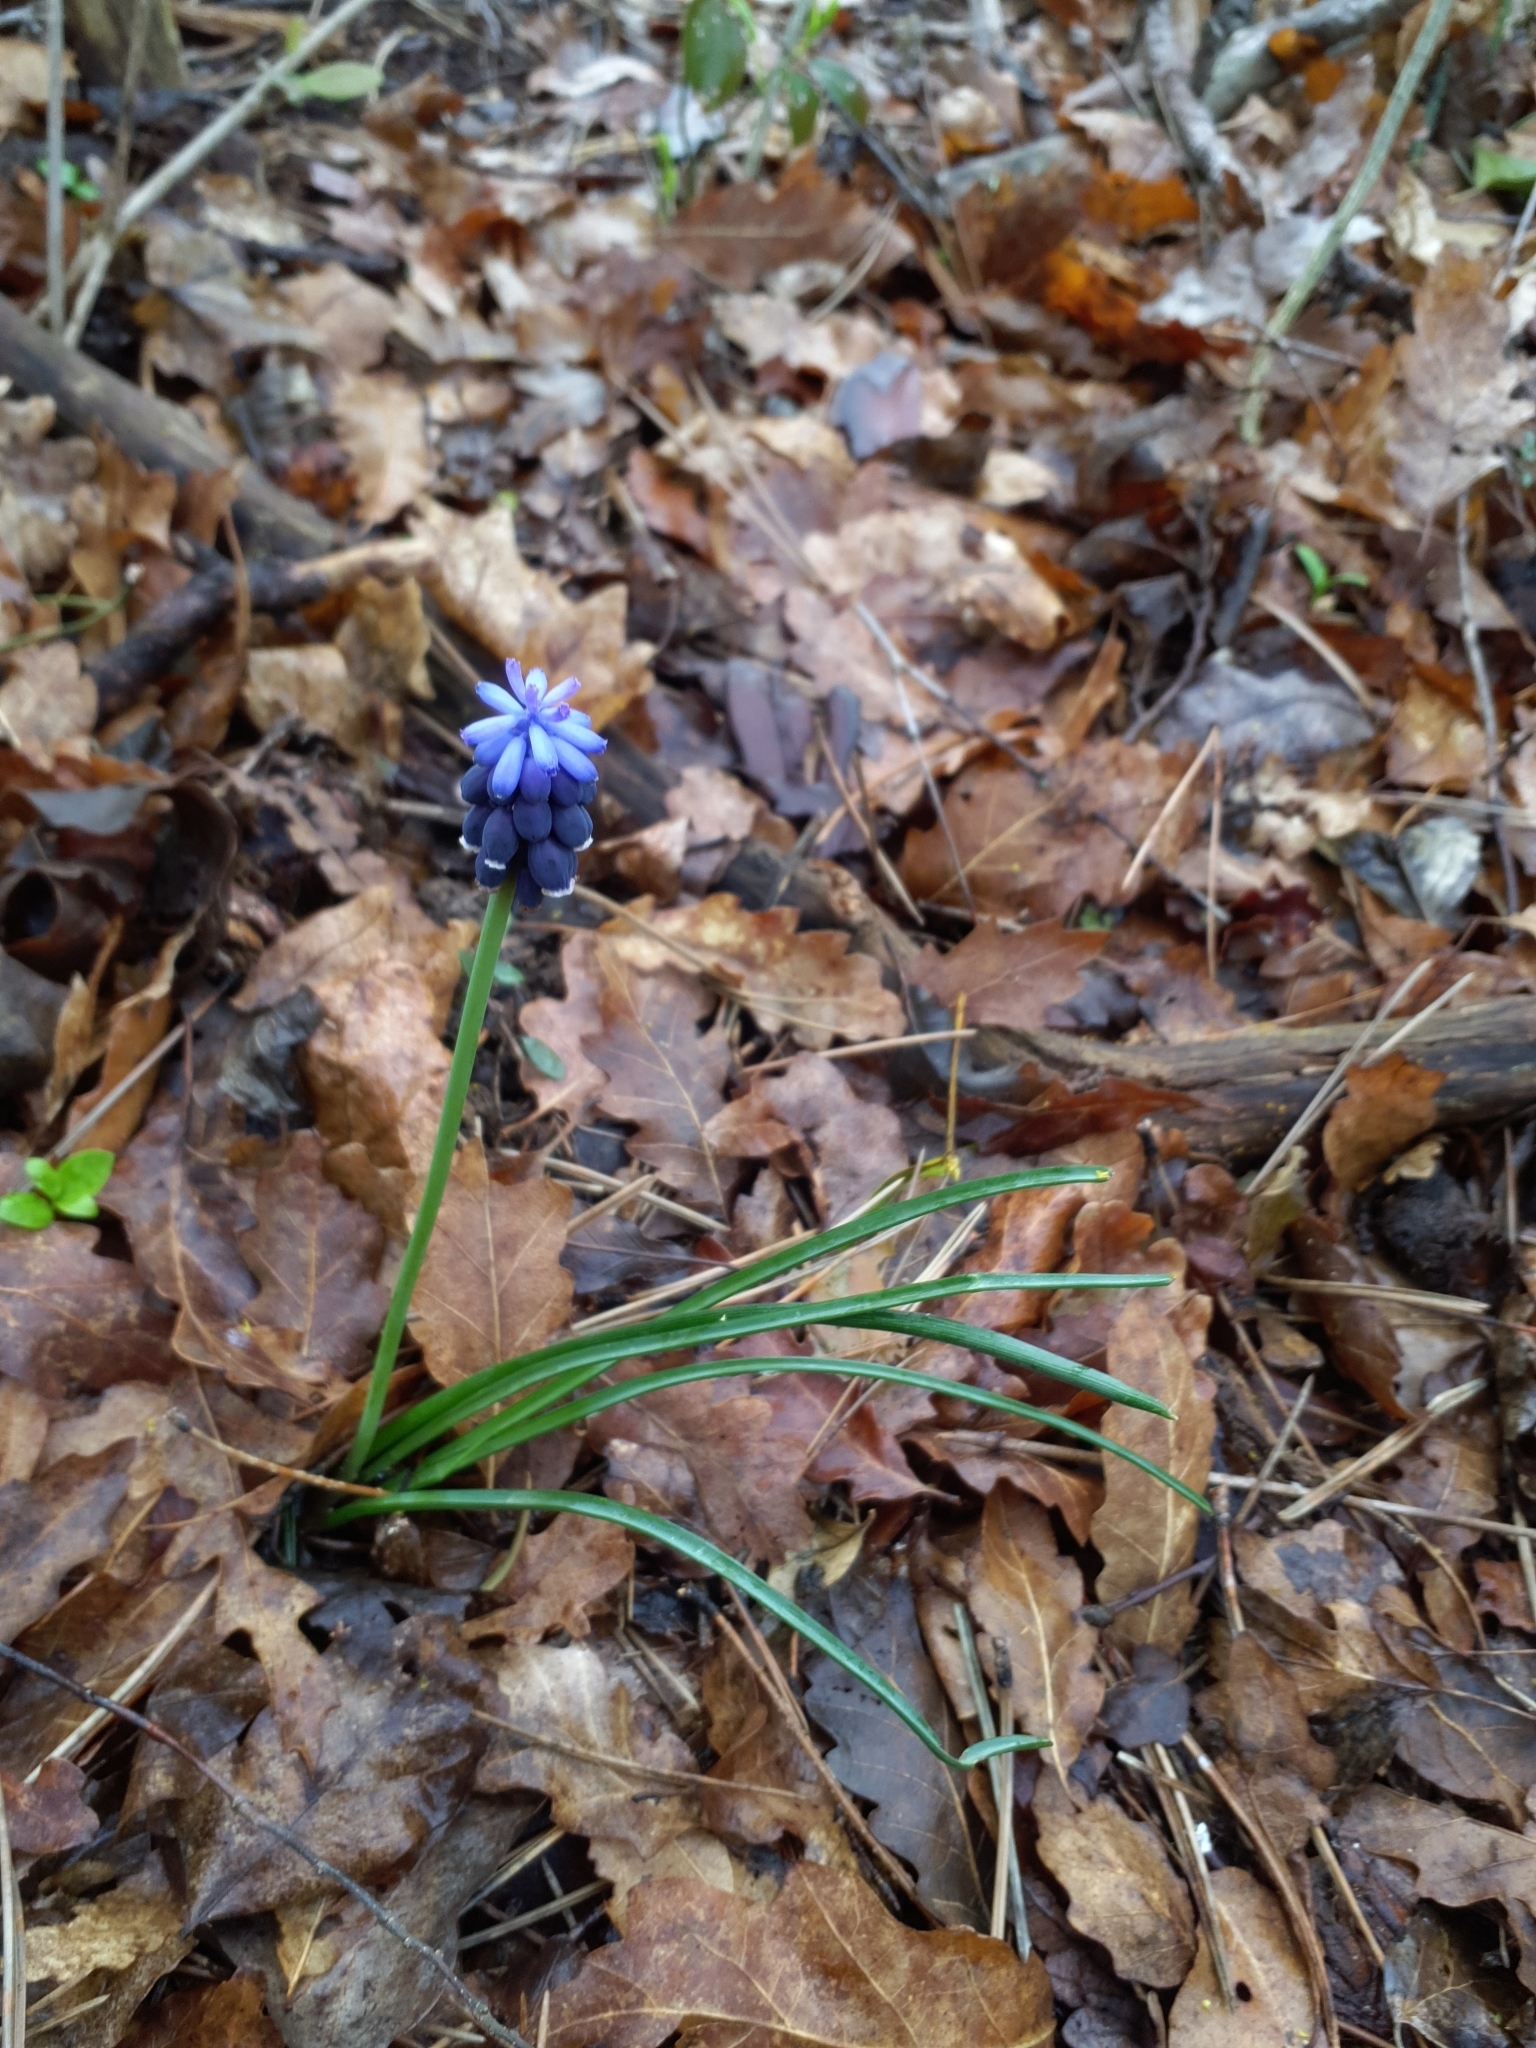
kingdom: Plantae
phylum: Tracheophyta
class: Liliopsida
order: Asparagales
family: Asparagaceae
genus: Muscari
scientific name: Muscari neglectum
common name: Grape-hyacinth
